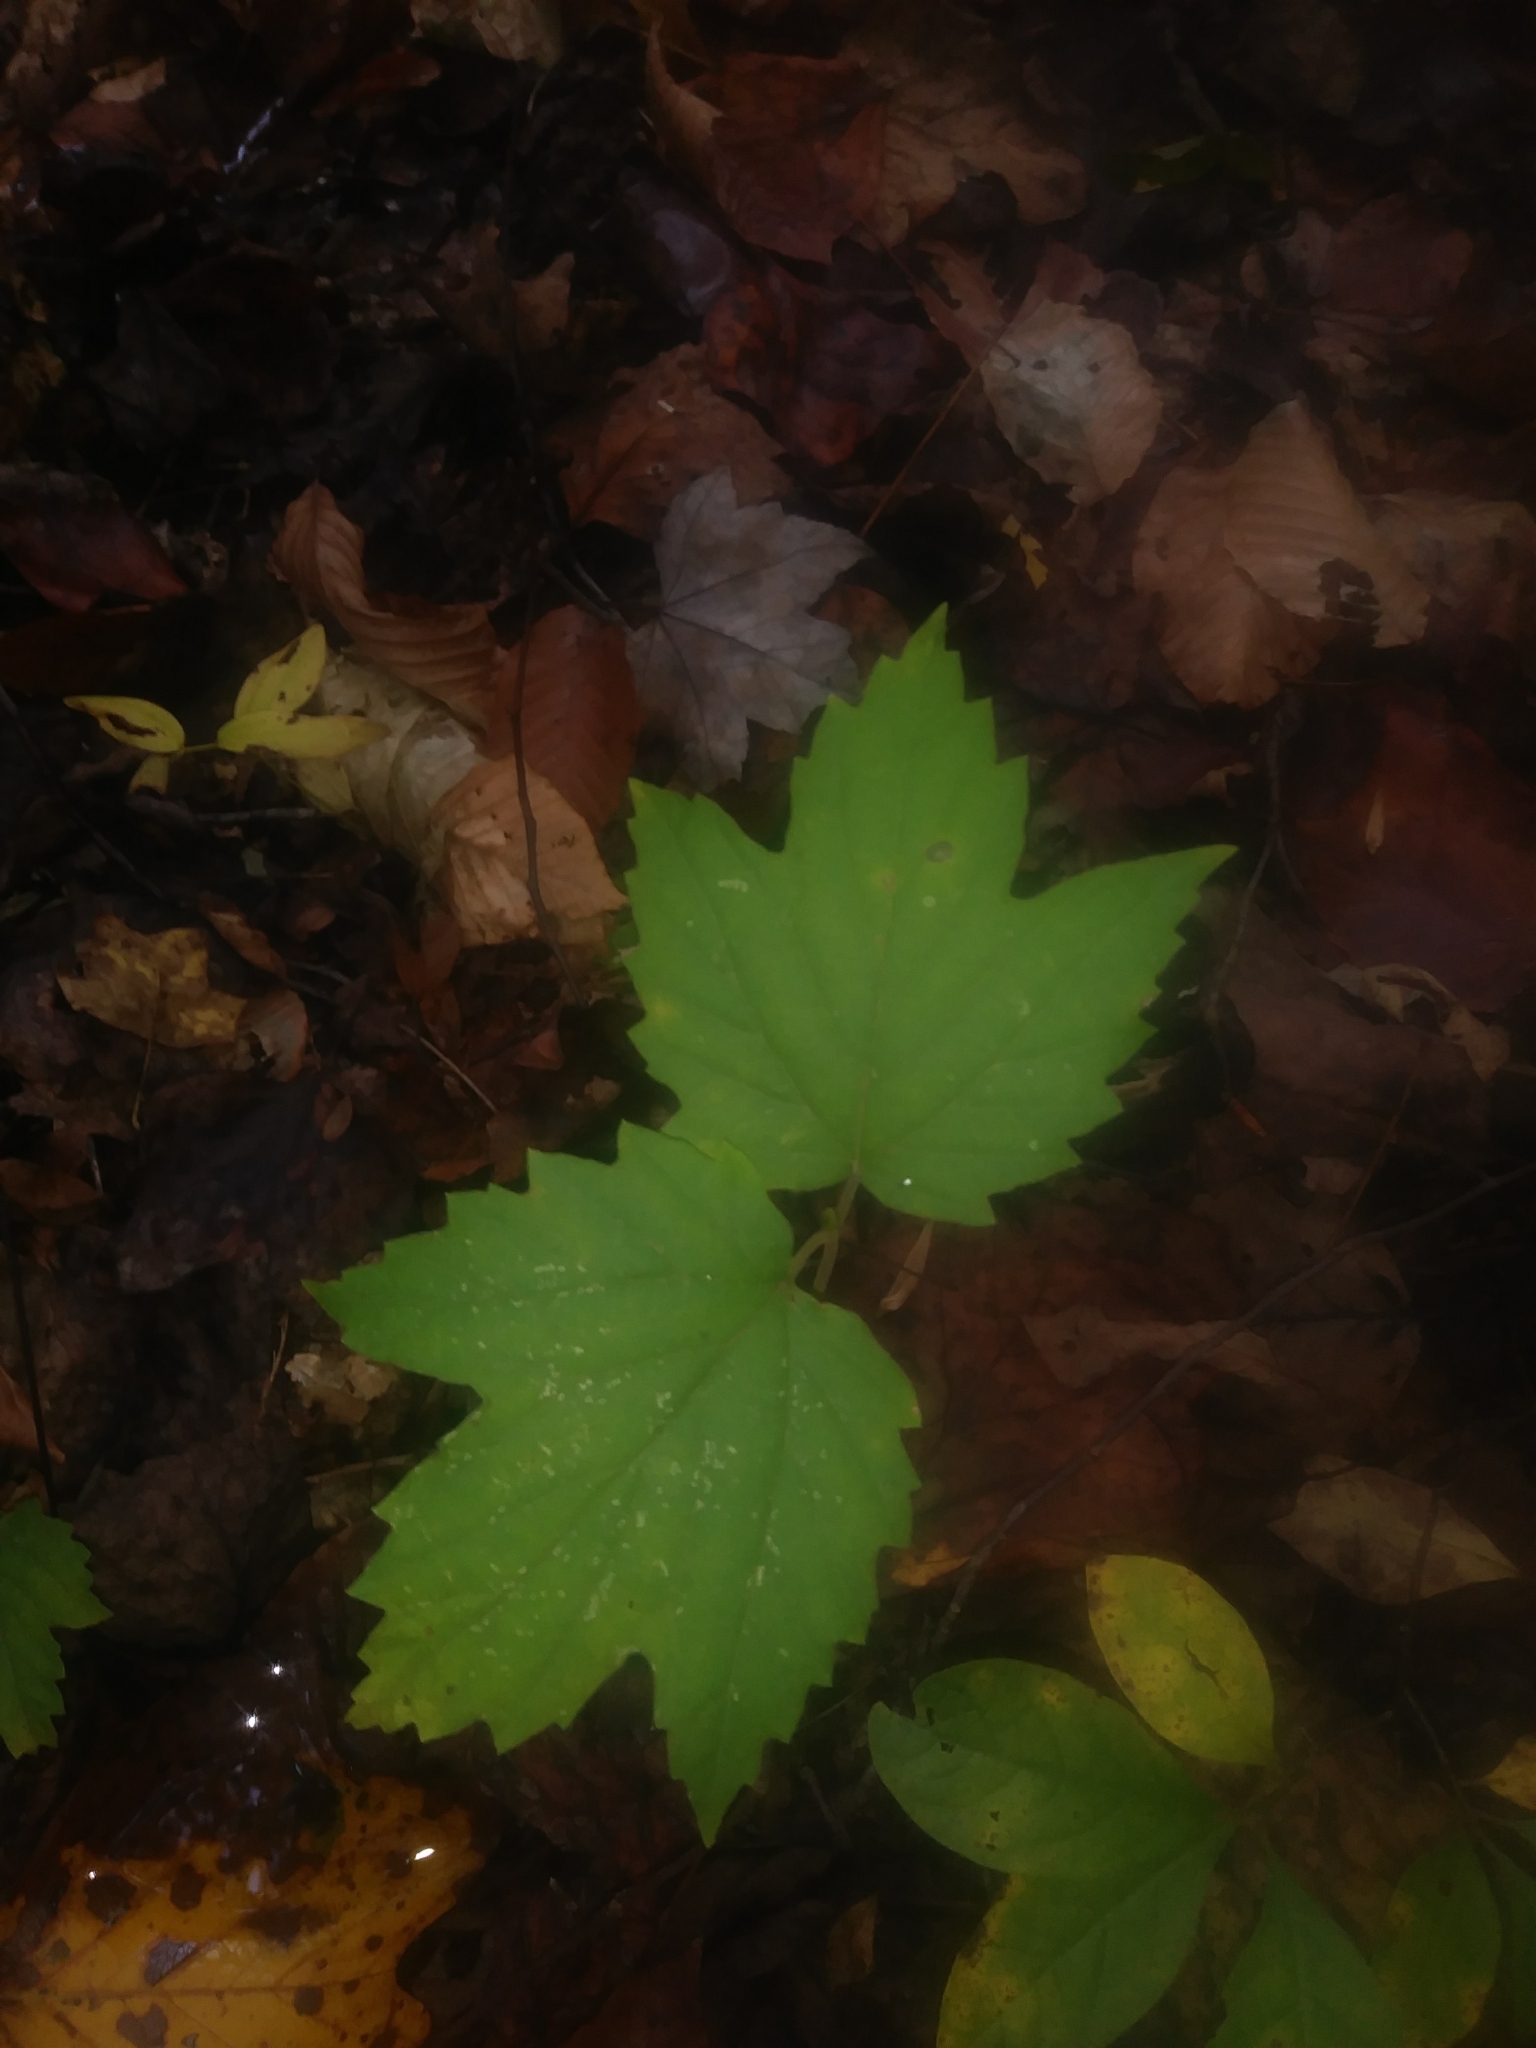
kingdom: Plantae
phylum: Tracheophyta
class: Magnoliopsida
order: Dipsacales
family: Viburnaceae
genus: Viburnum
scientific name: Viburnum acerifolium
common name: Dockmackie
